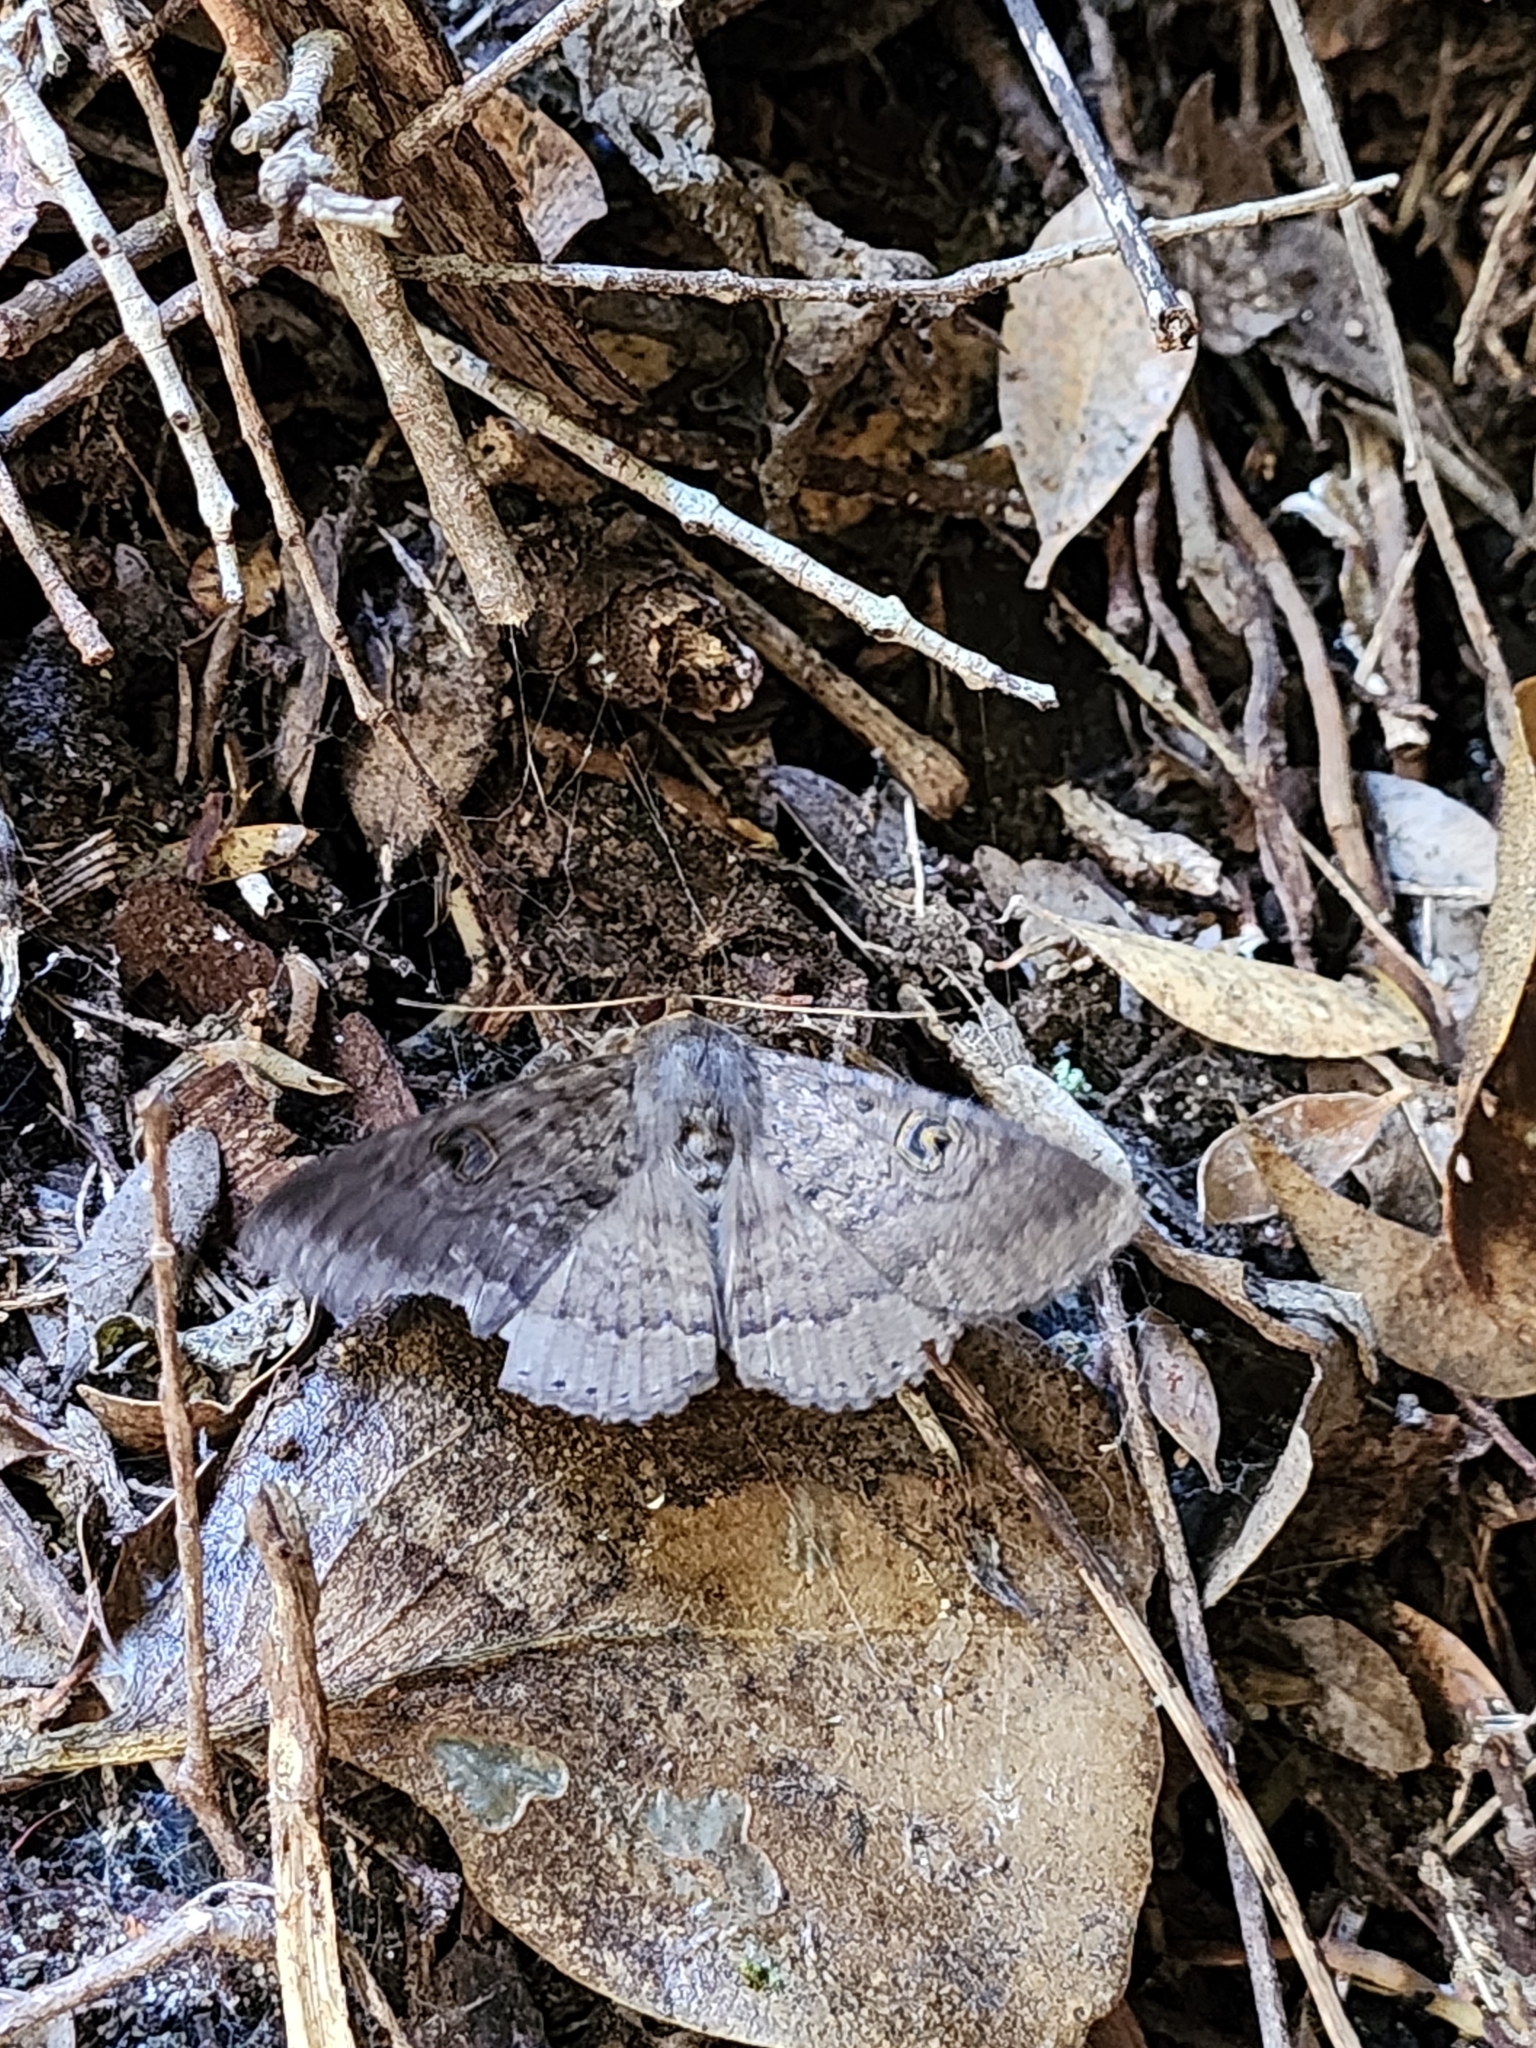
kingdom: Animalia
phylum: Arthropoda
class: Insecta
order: Lepidoptera
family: Erebidae
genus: Dasypodia
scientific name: Dasypodia cymatodes
